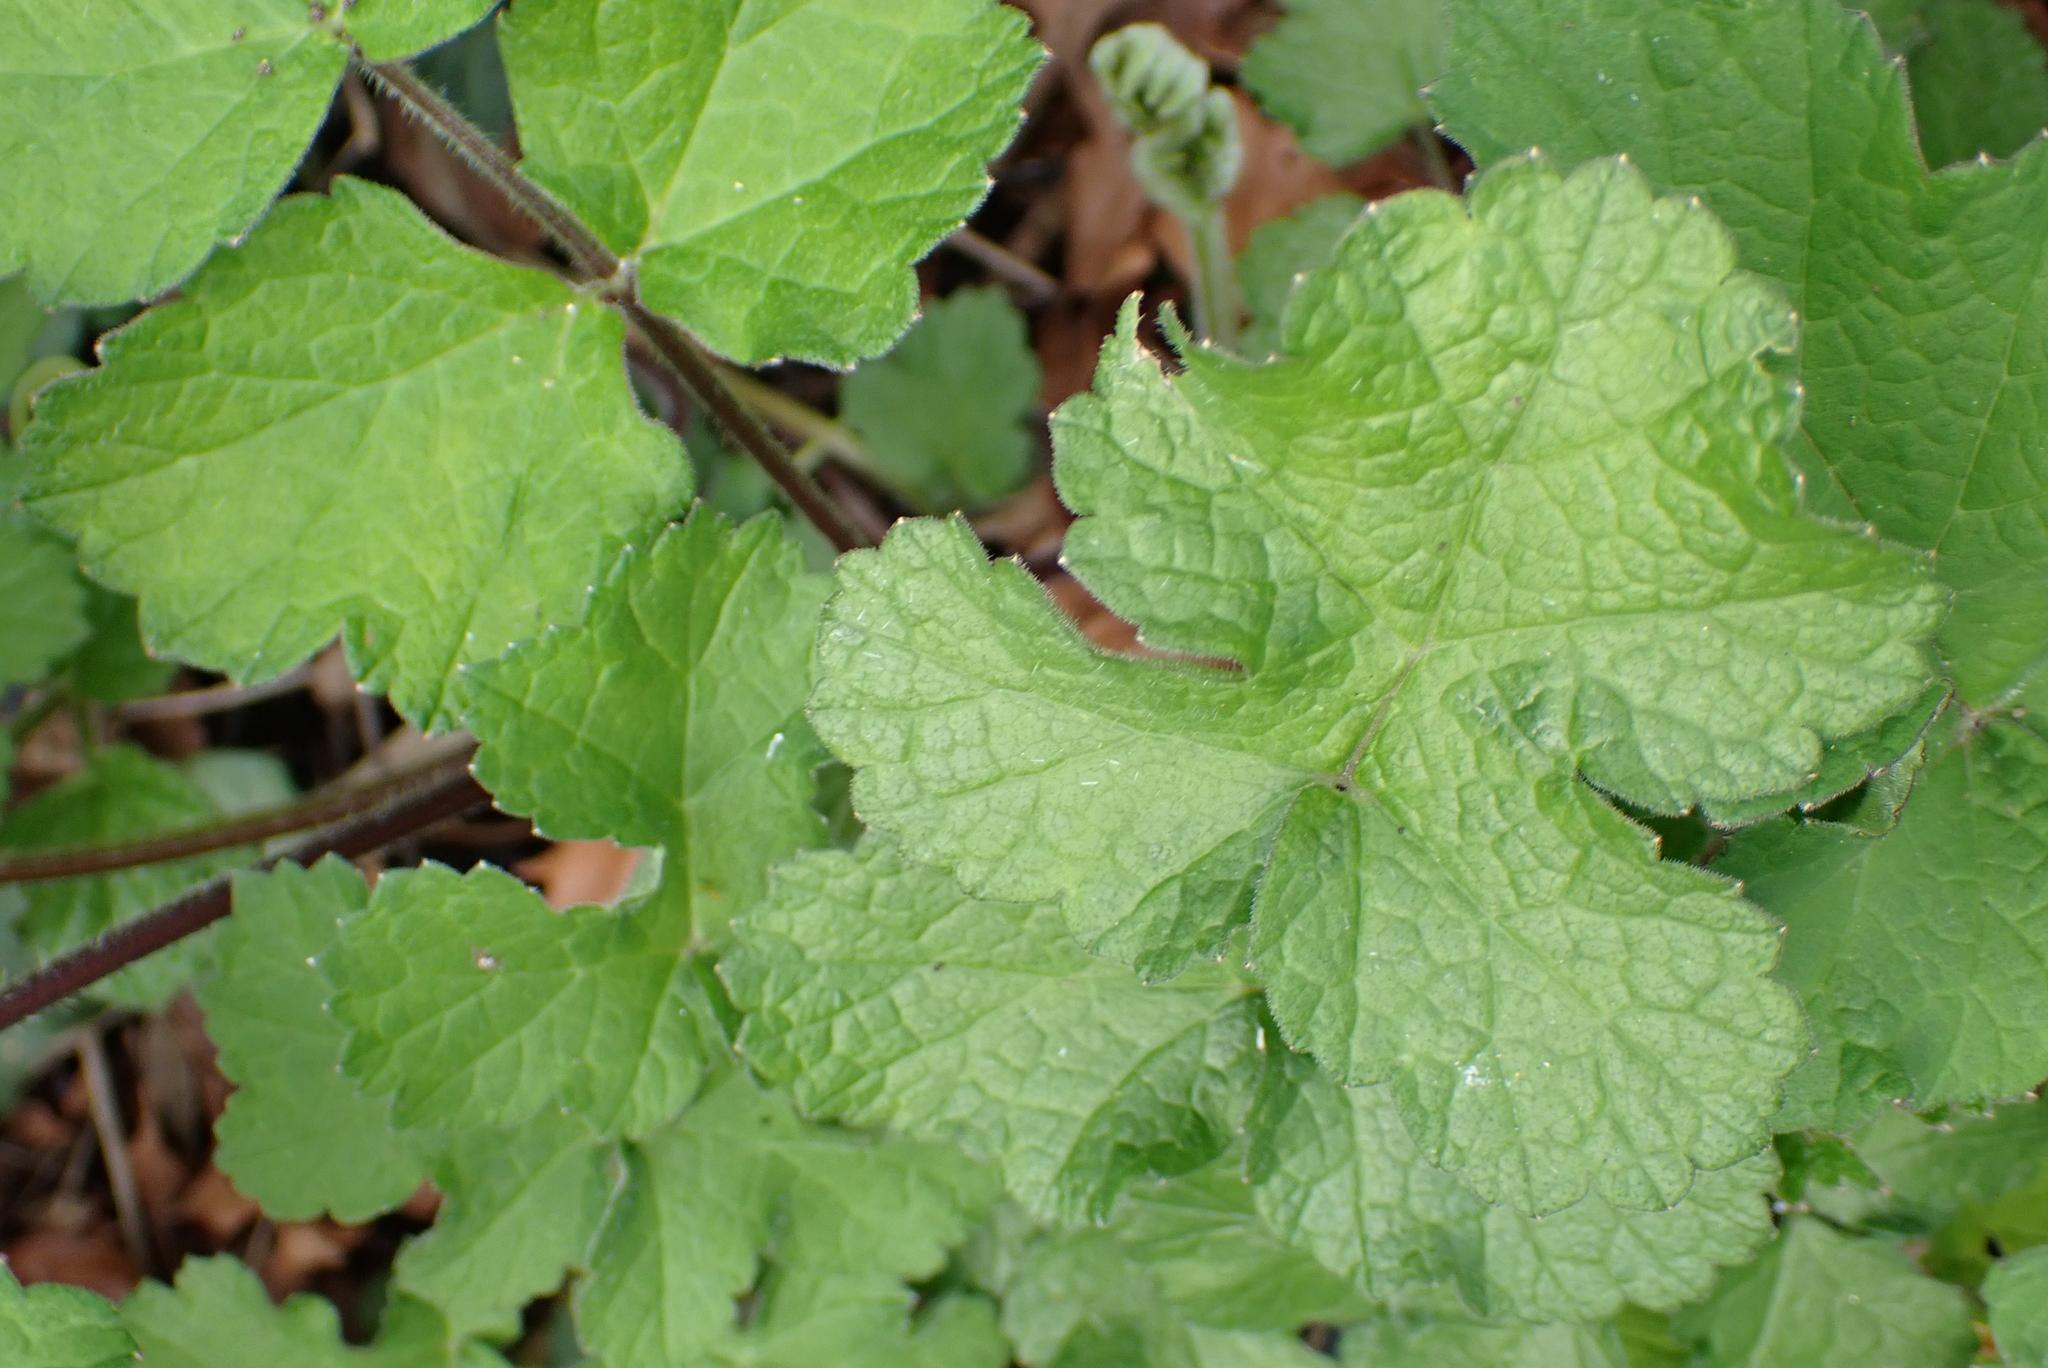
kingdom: Plantae
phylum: Tracheophyta
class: Magnoliopsida
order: Apiales
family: Apiaceae
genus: Heracleum
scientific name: Heracleum sphondylium
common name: Hogweed
